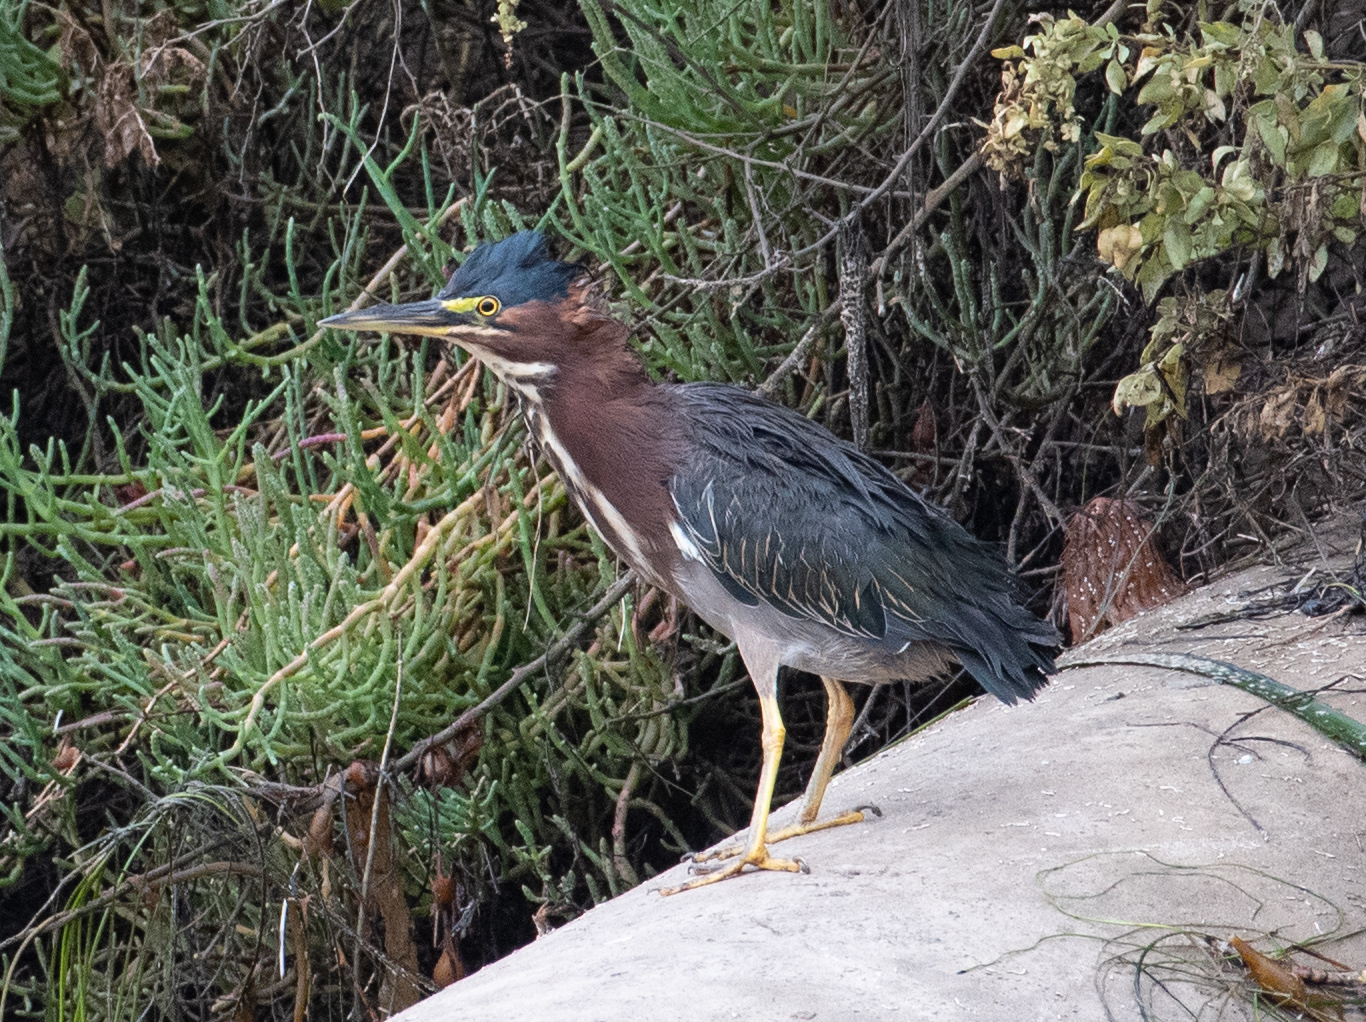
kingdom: Animalia
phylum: Chordata
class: Aves
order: Pelecaniformes
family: Ardeidae
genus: Butorides
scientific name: Butorides virescens
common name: Green heron
